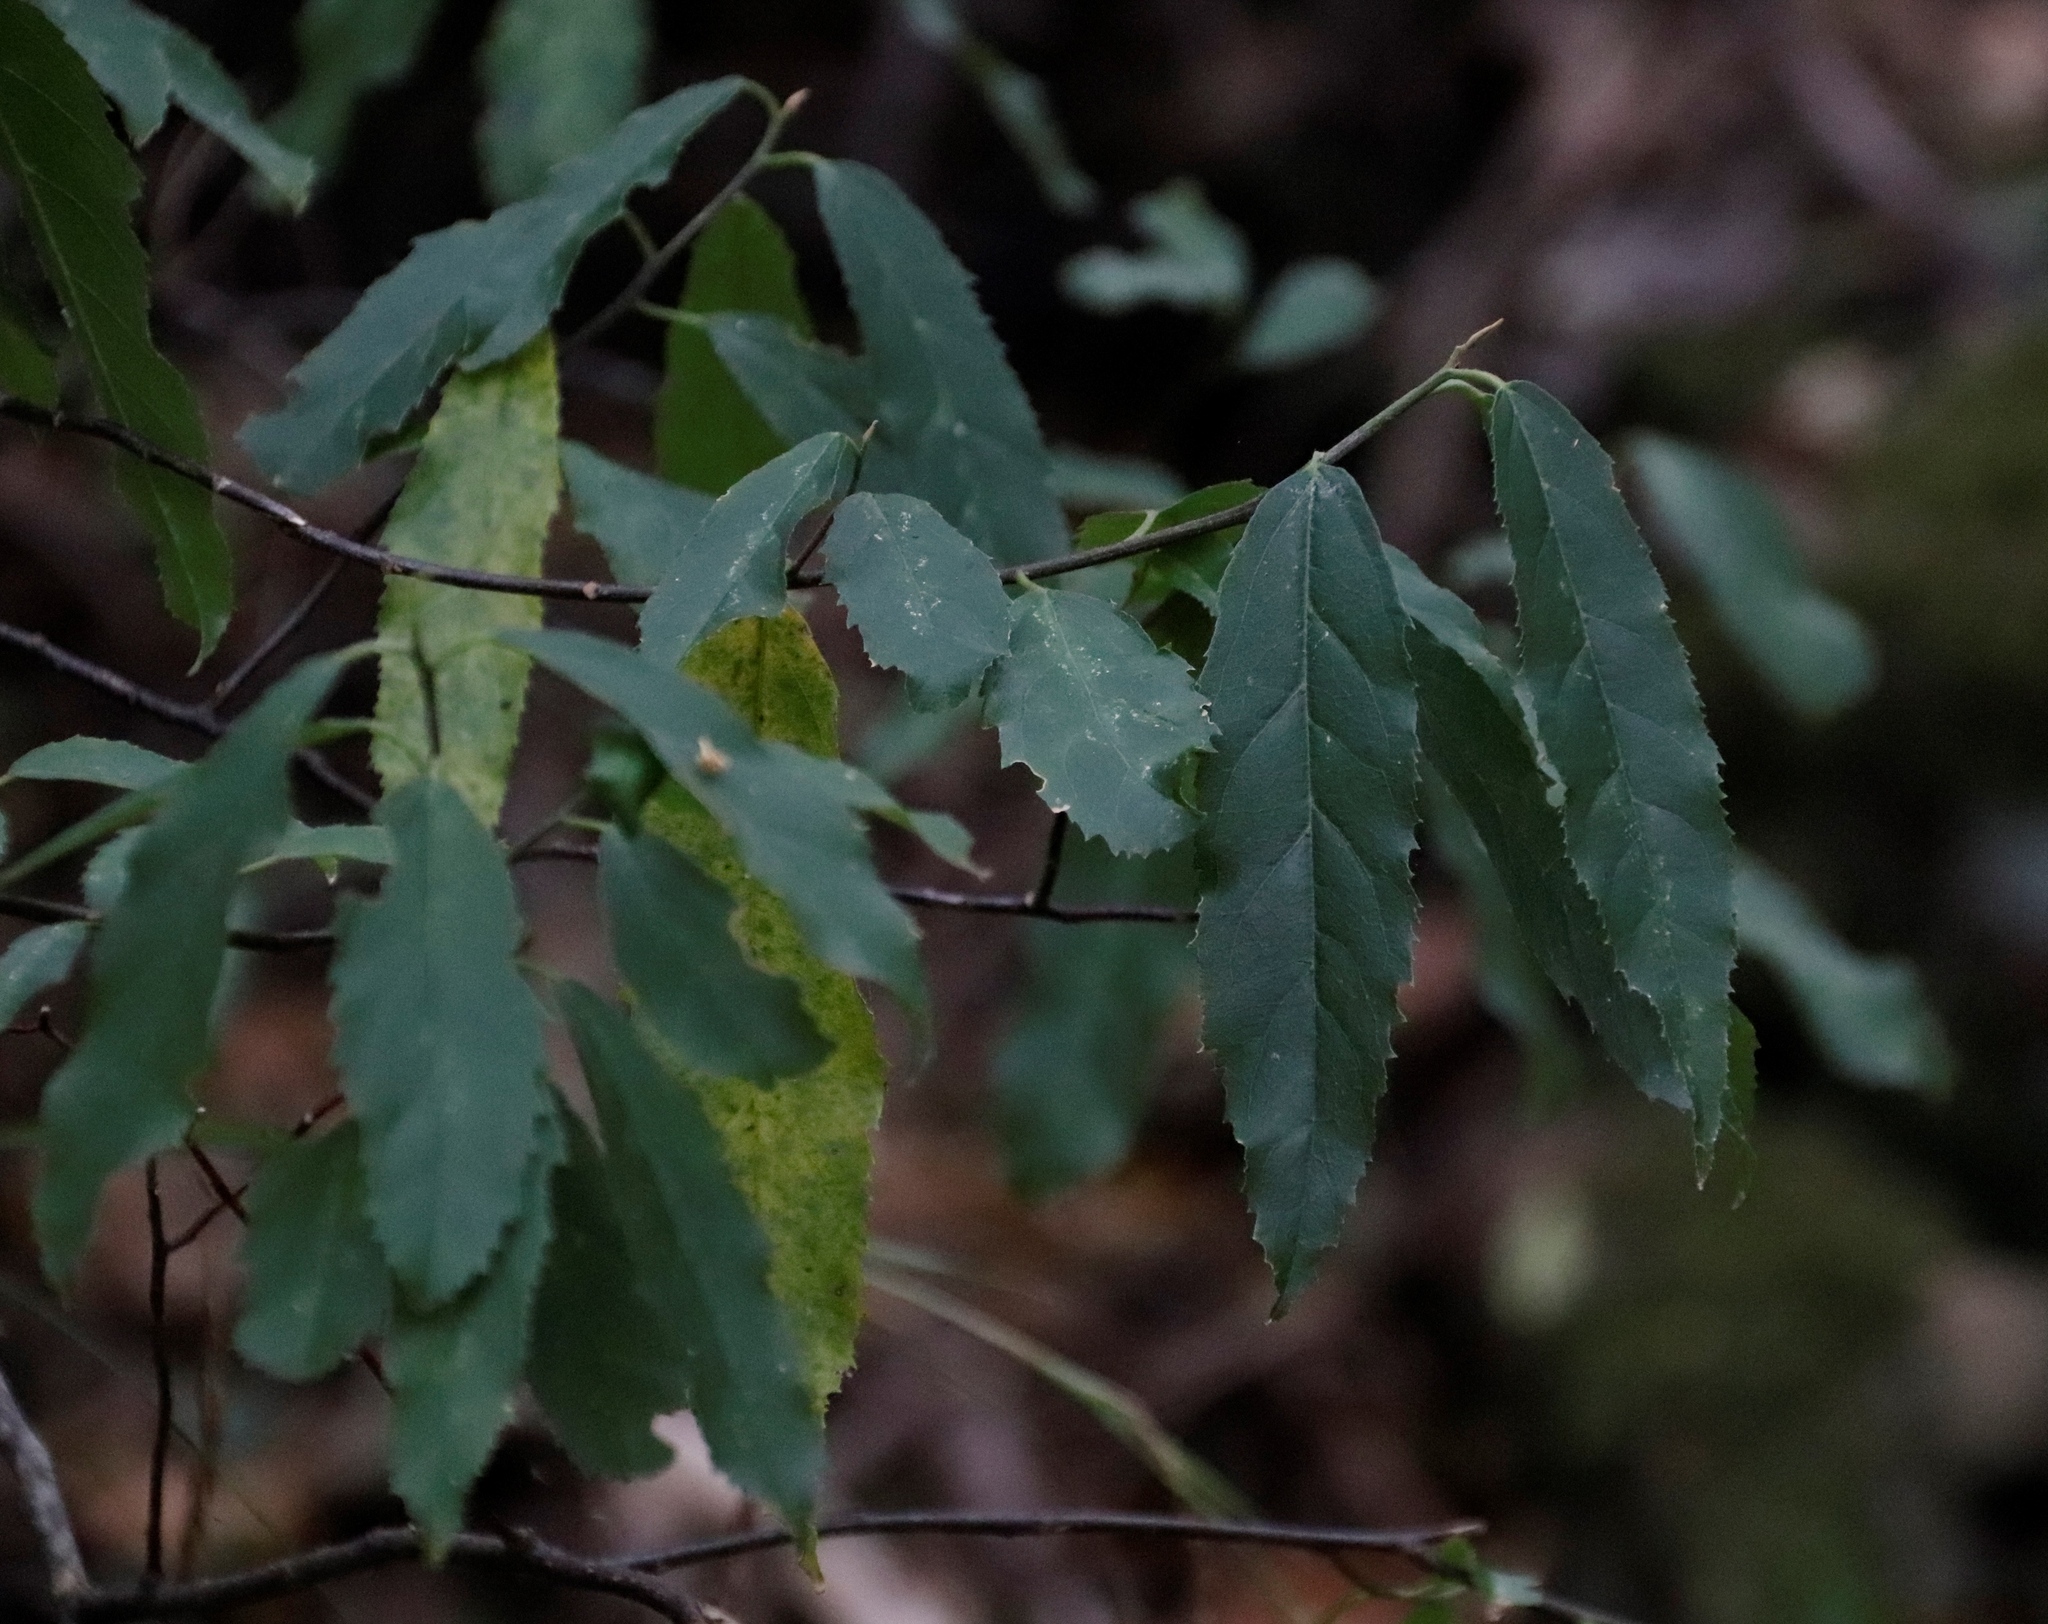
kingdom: Plantae
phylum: Tracheophyta
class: Magnoliopsida
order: Malpighiales
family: Achariaceae
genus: Kiggelaria
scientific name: Kiggelaria africana
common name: Wild peach
